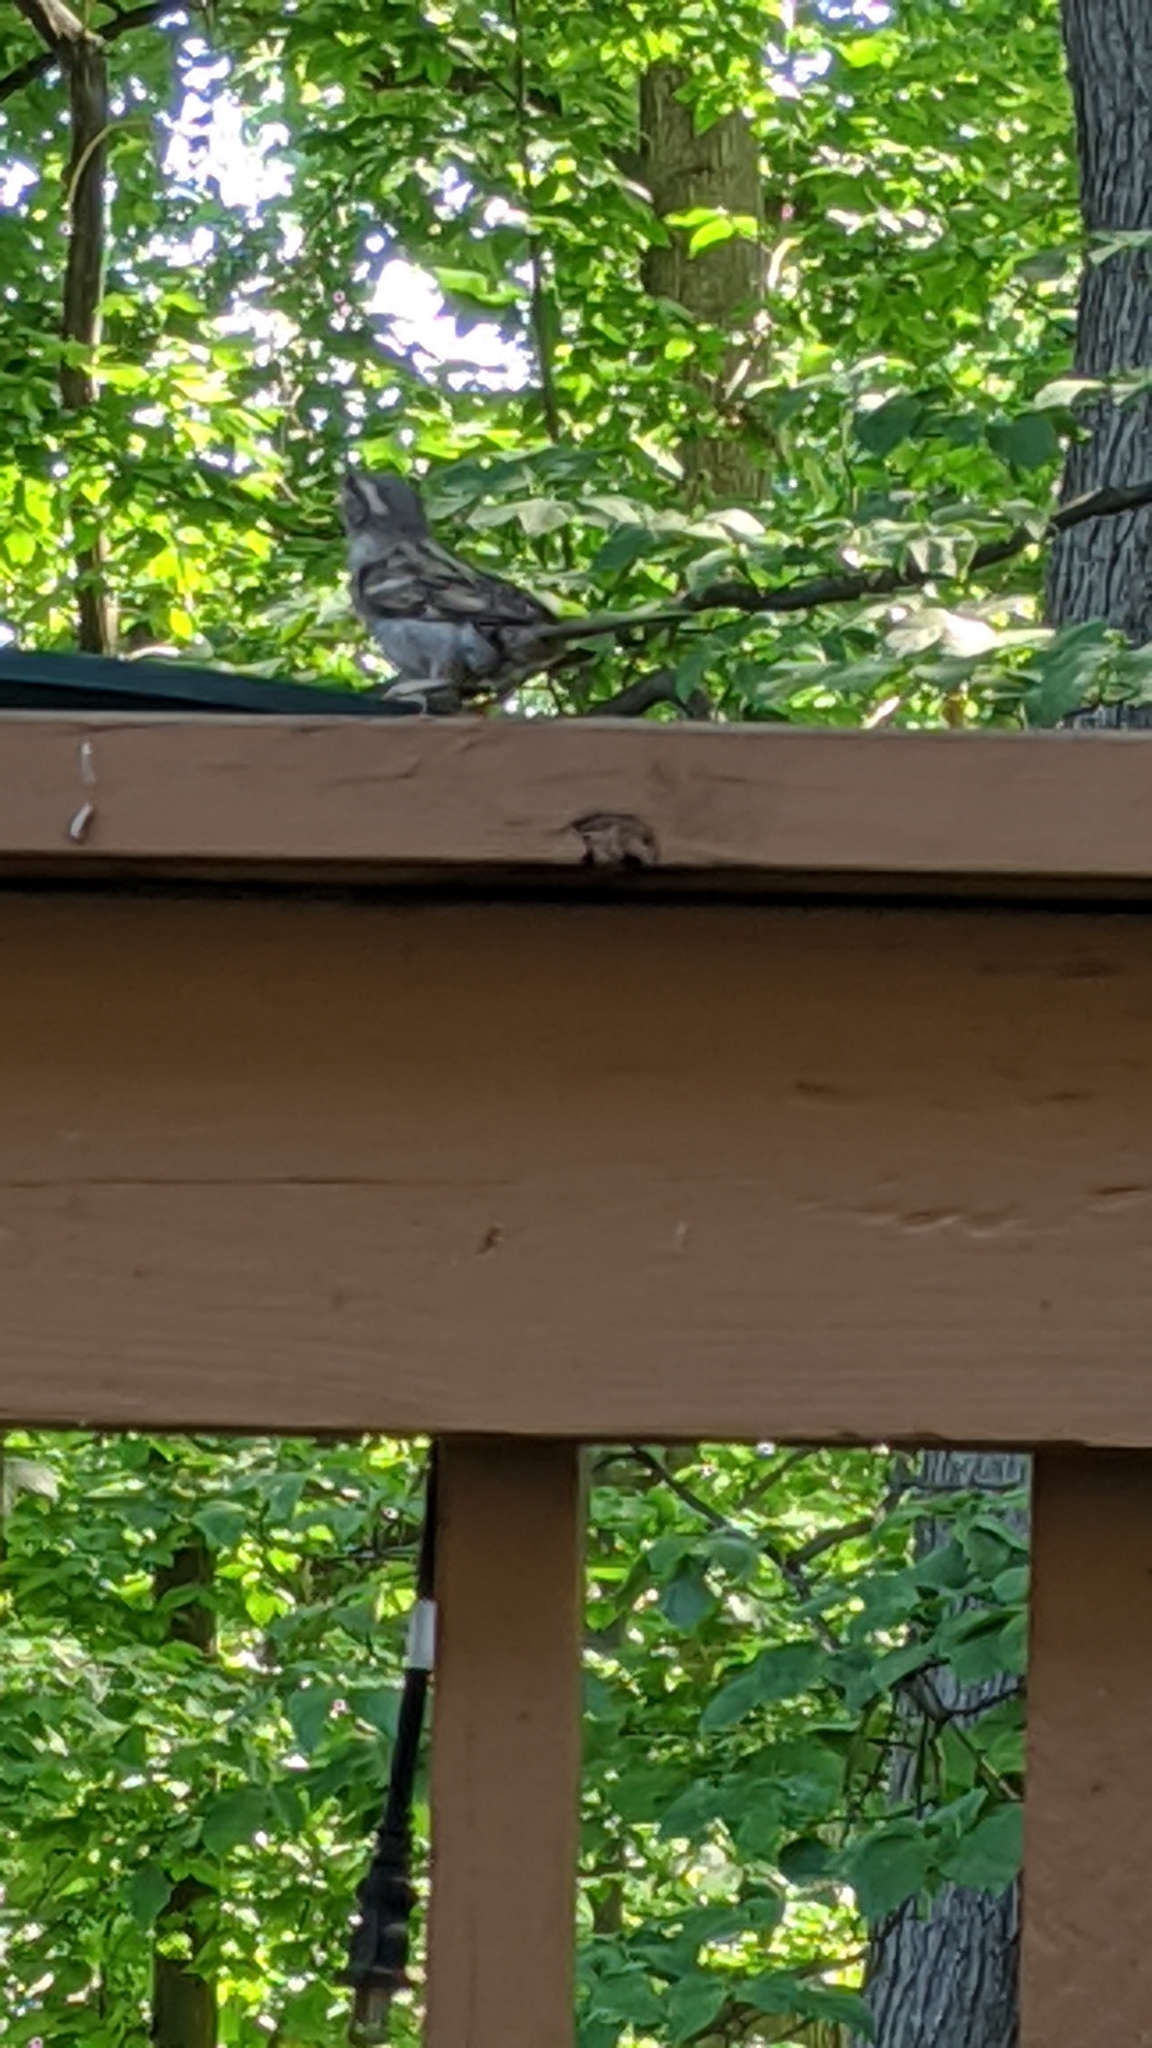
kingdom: Animalia
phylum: Chordata
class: Aves
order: Passeriformes
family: Passeridae
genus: Passer
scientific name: Passer domesticus
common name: House sparrow
